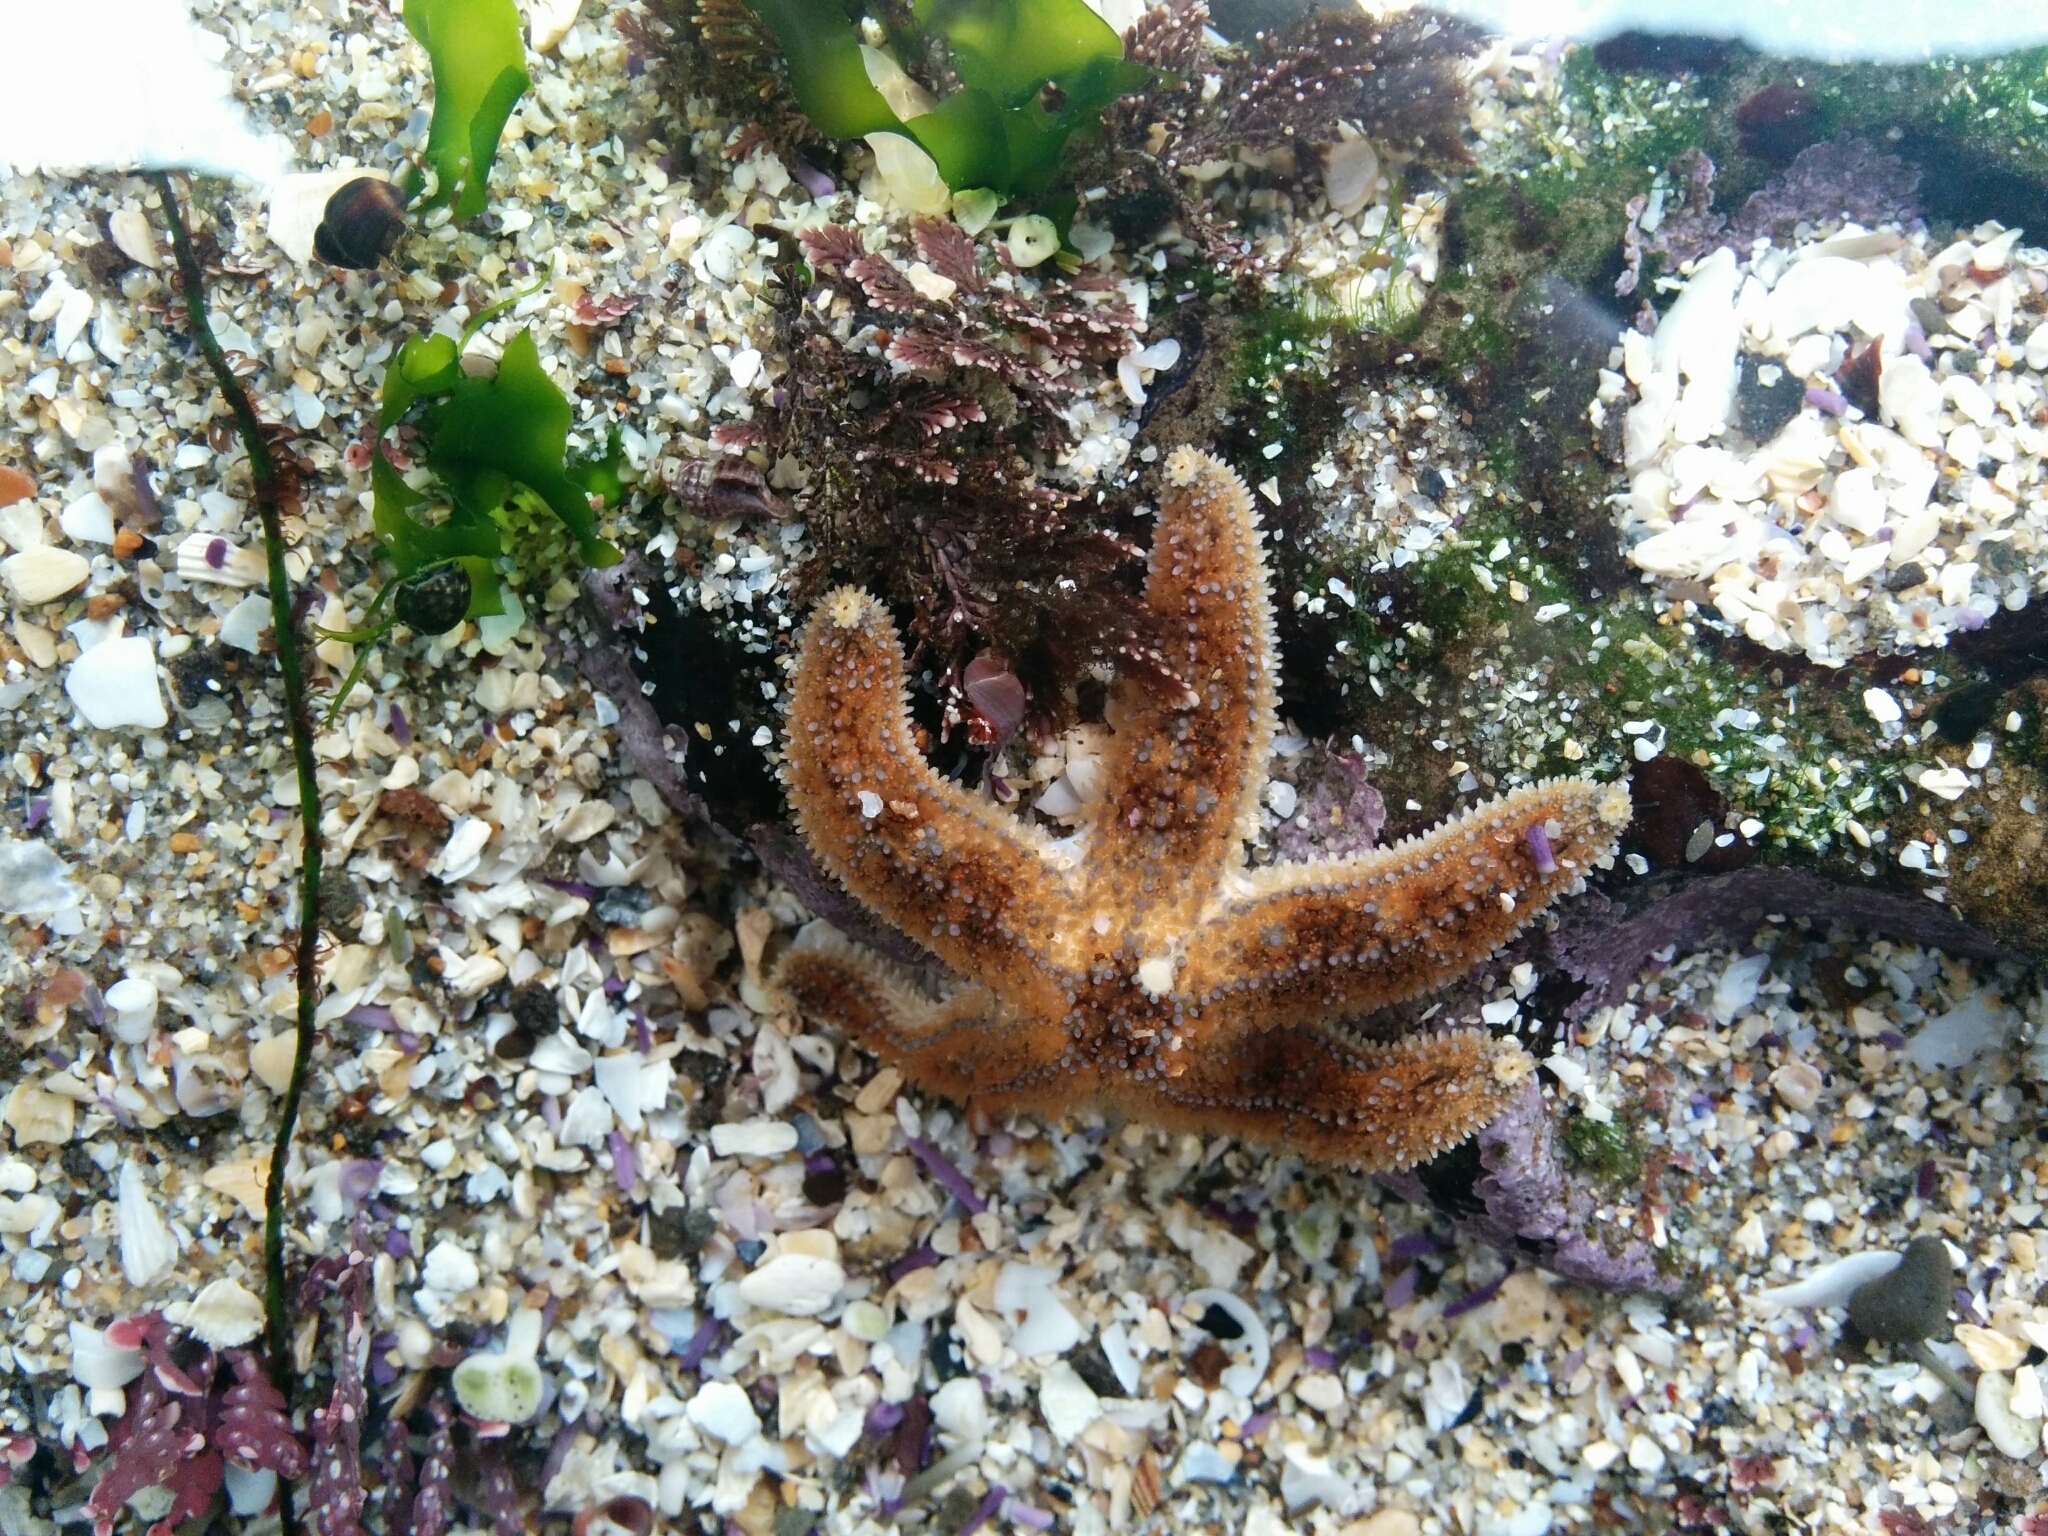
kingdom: Animalia
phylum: Echinodermata
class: Asteroidea
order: Forcipulatida
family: Asteriidae
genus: Pisaster
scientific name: Pisaster ochraceus
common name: Ochre stars
